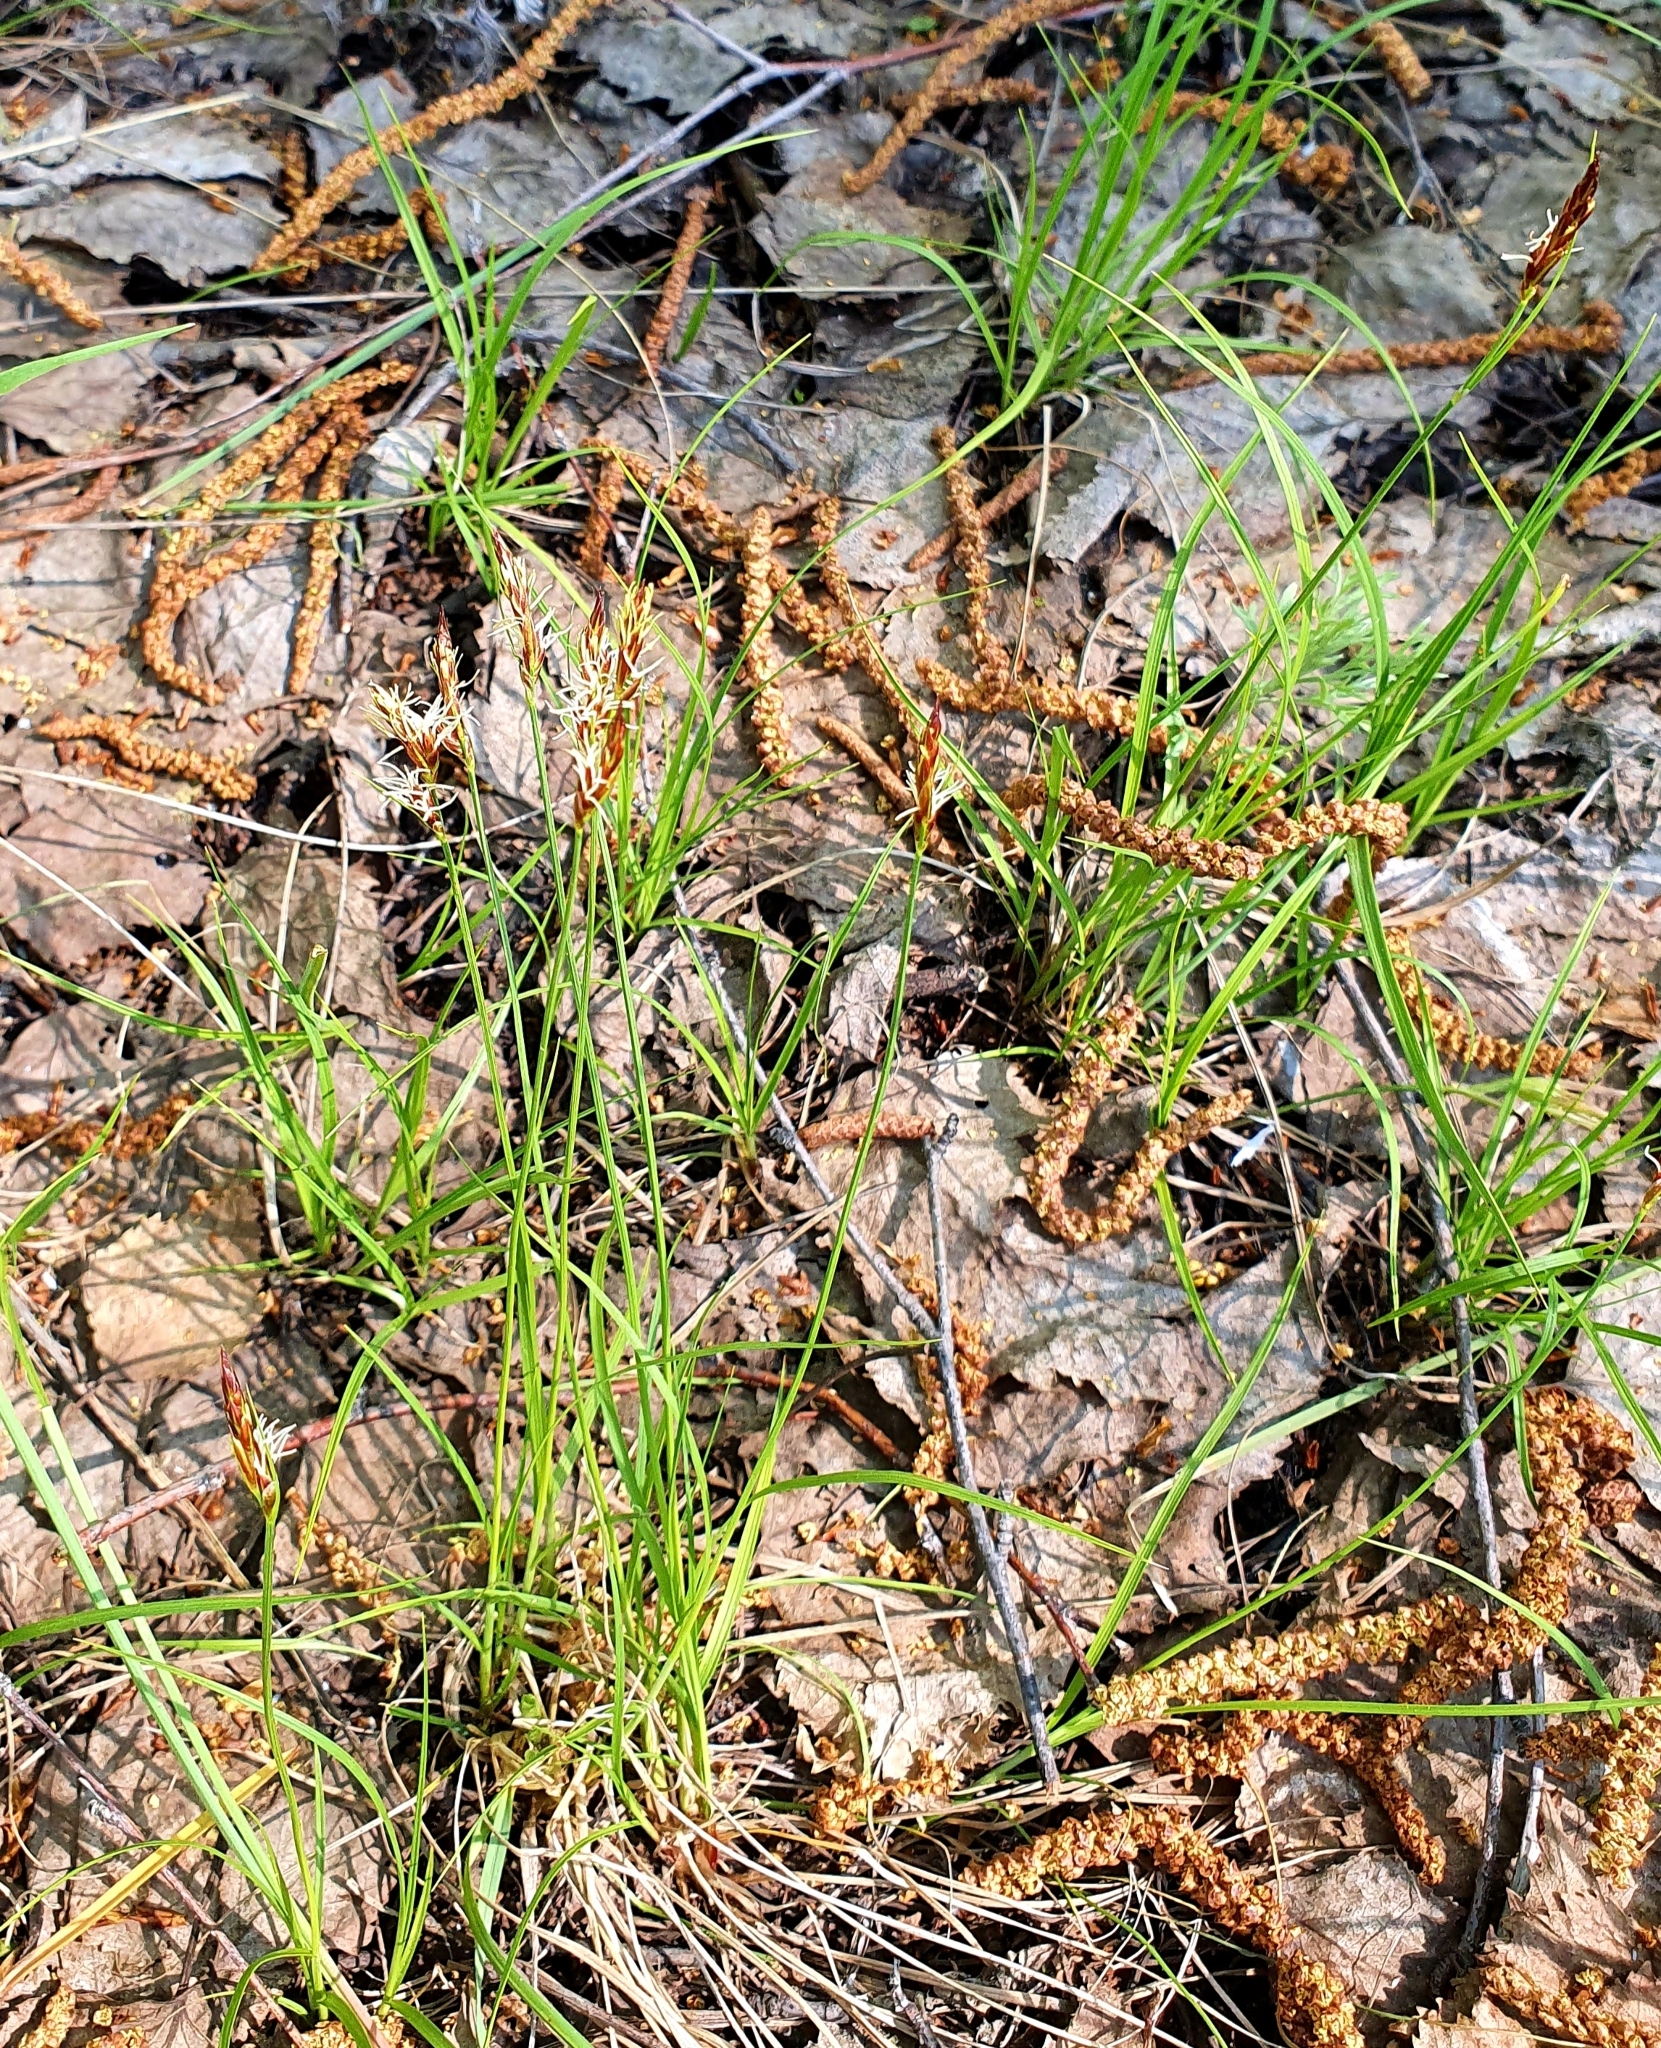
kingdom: Plantae
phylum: Tracheophyta
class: Liliopsida
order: Poales
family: Cyperaceae
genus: Carex
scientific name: Carex praecox
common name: Early sedge
